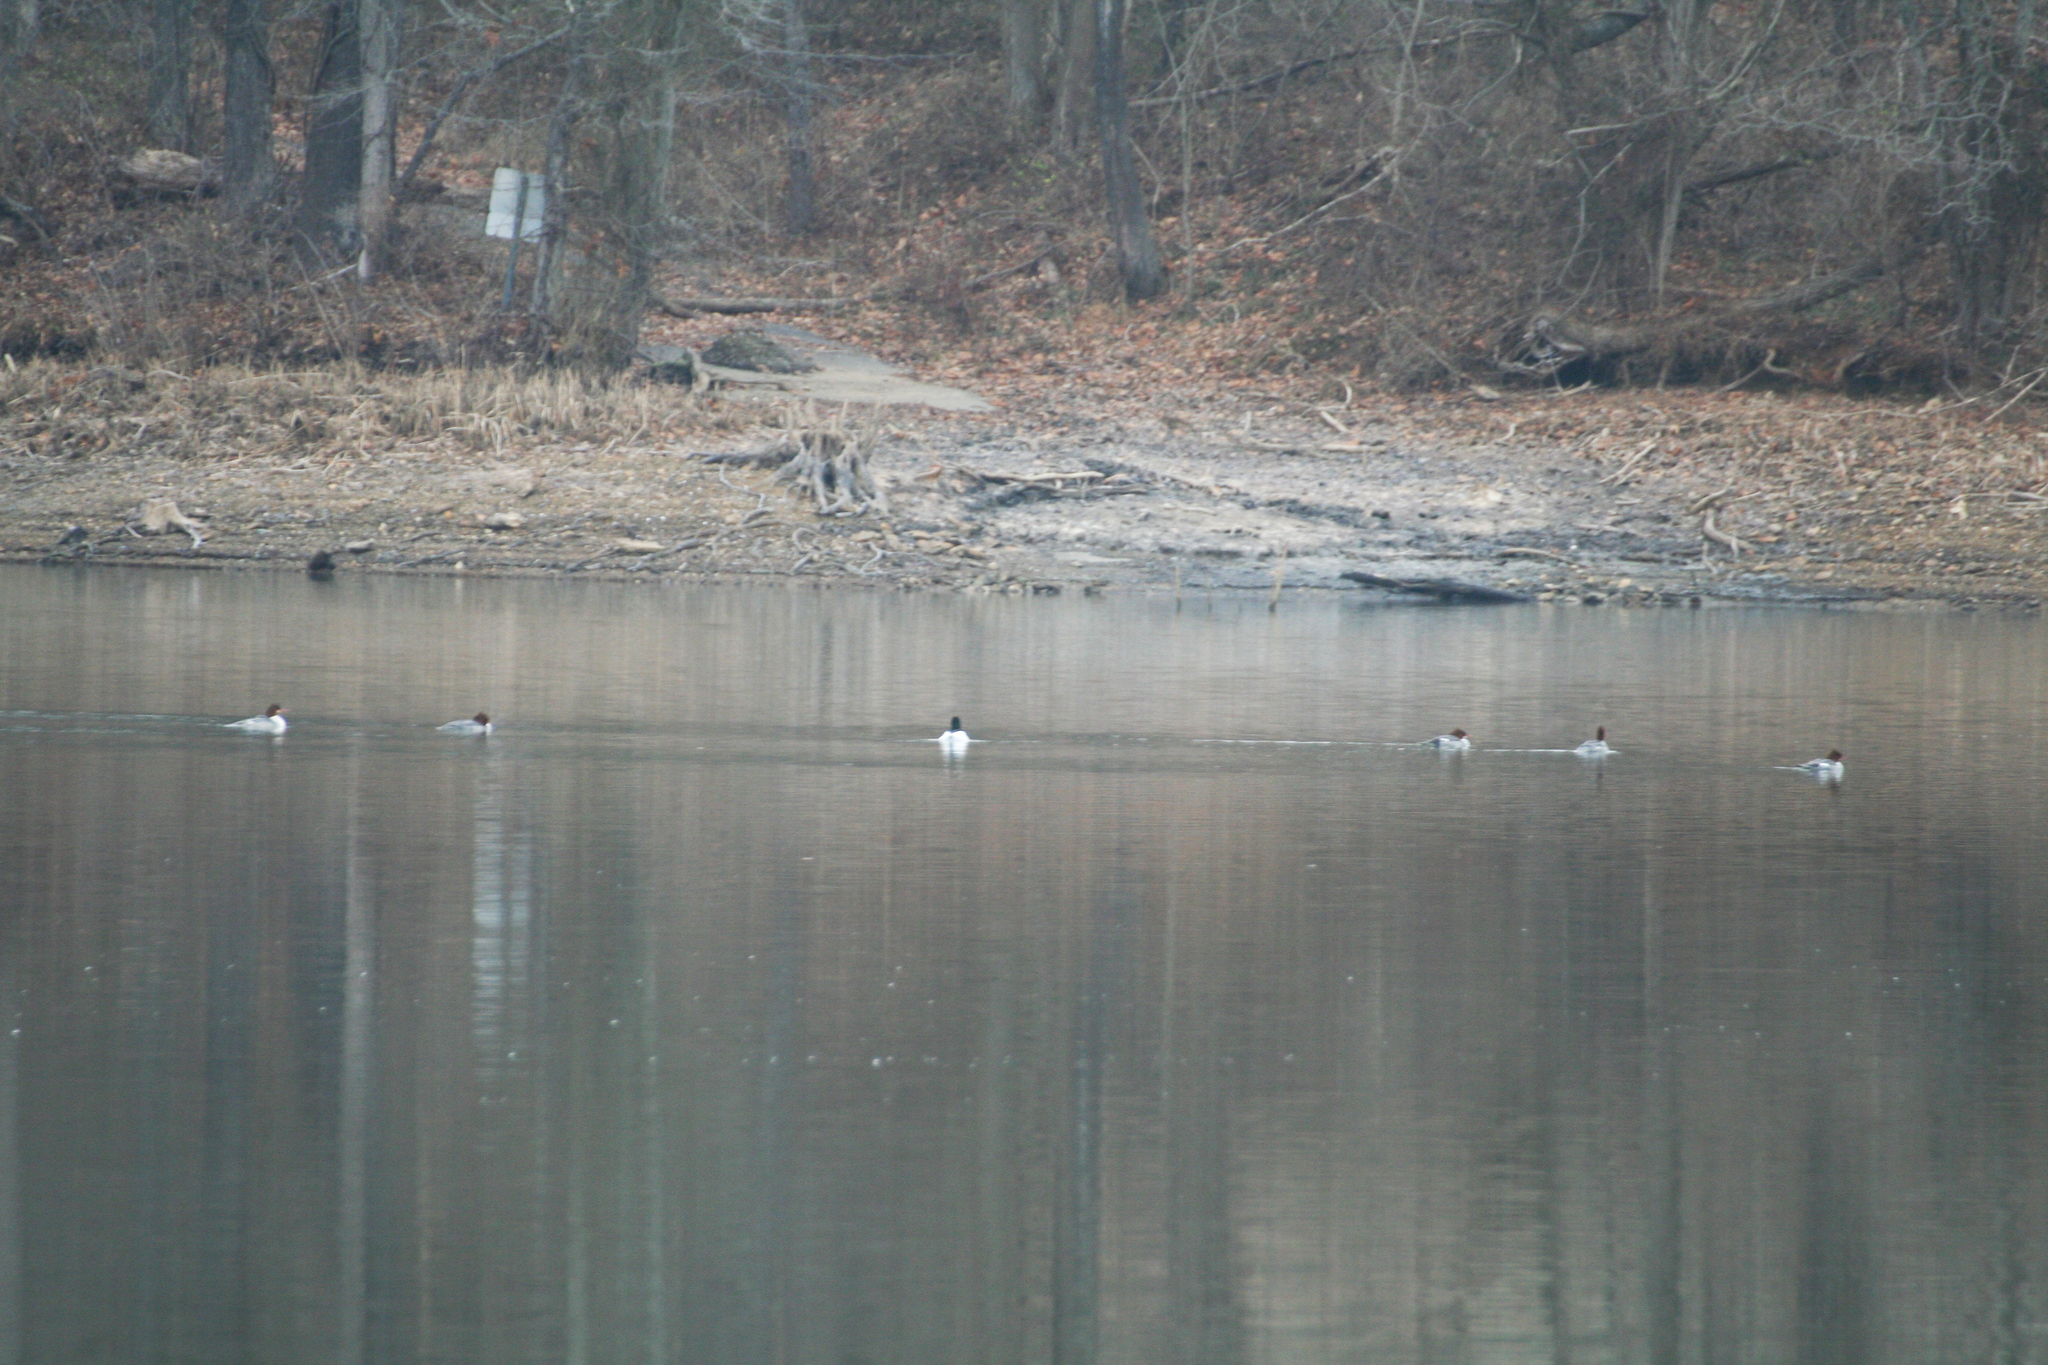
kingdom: Animalia
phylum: Chordata
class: Aves
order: Anseriformes
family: Anatidae
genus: Mergus
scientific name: Mergus merganser
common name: Common merganser
